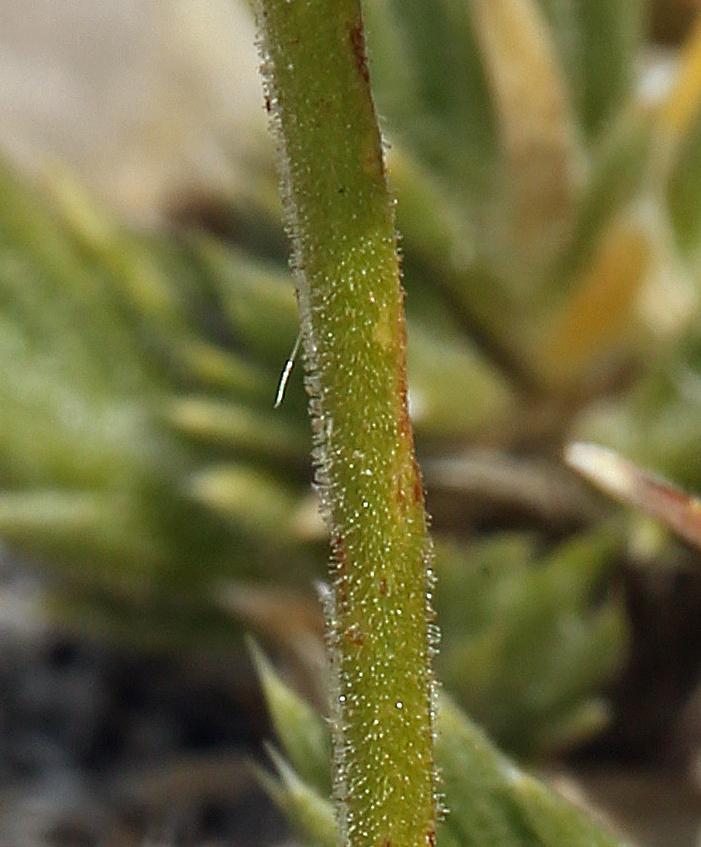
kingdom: Plantae
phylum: Tracheophyta
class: Magnoliopsida
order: Caryophyllales
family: Polygonaceae
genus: Eriogonum
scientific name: Eriogonum rosense
